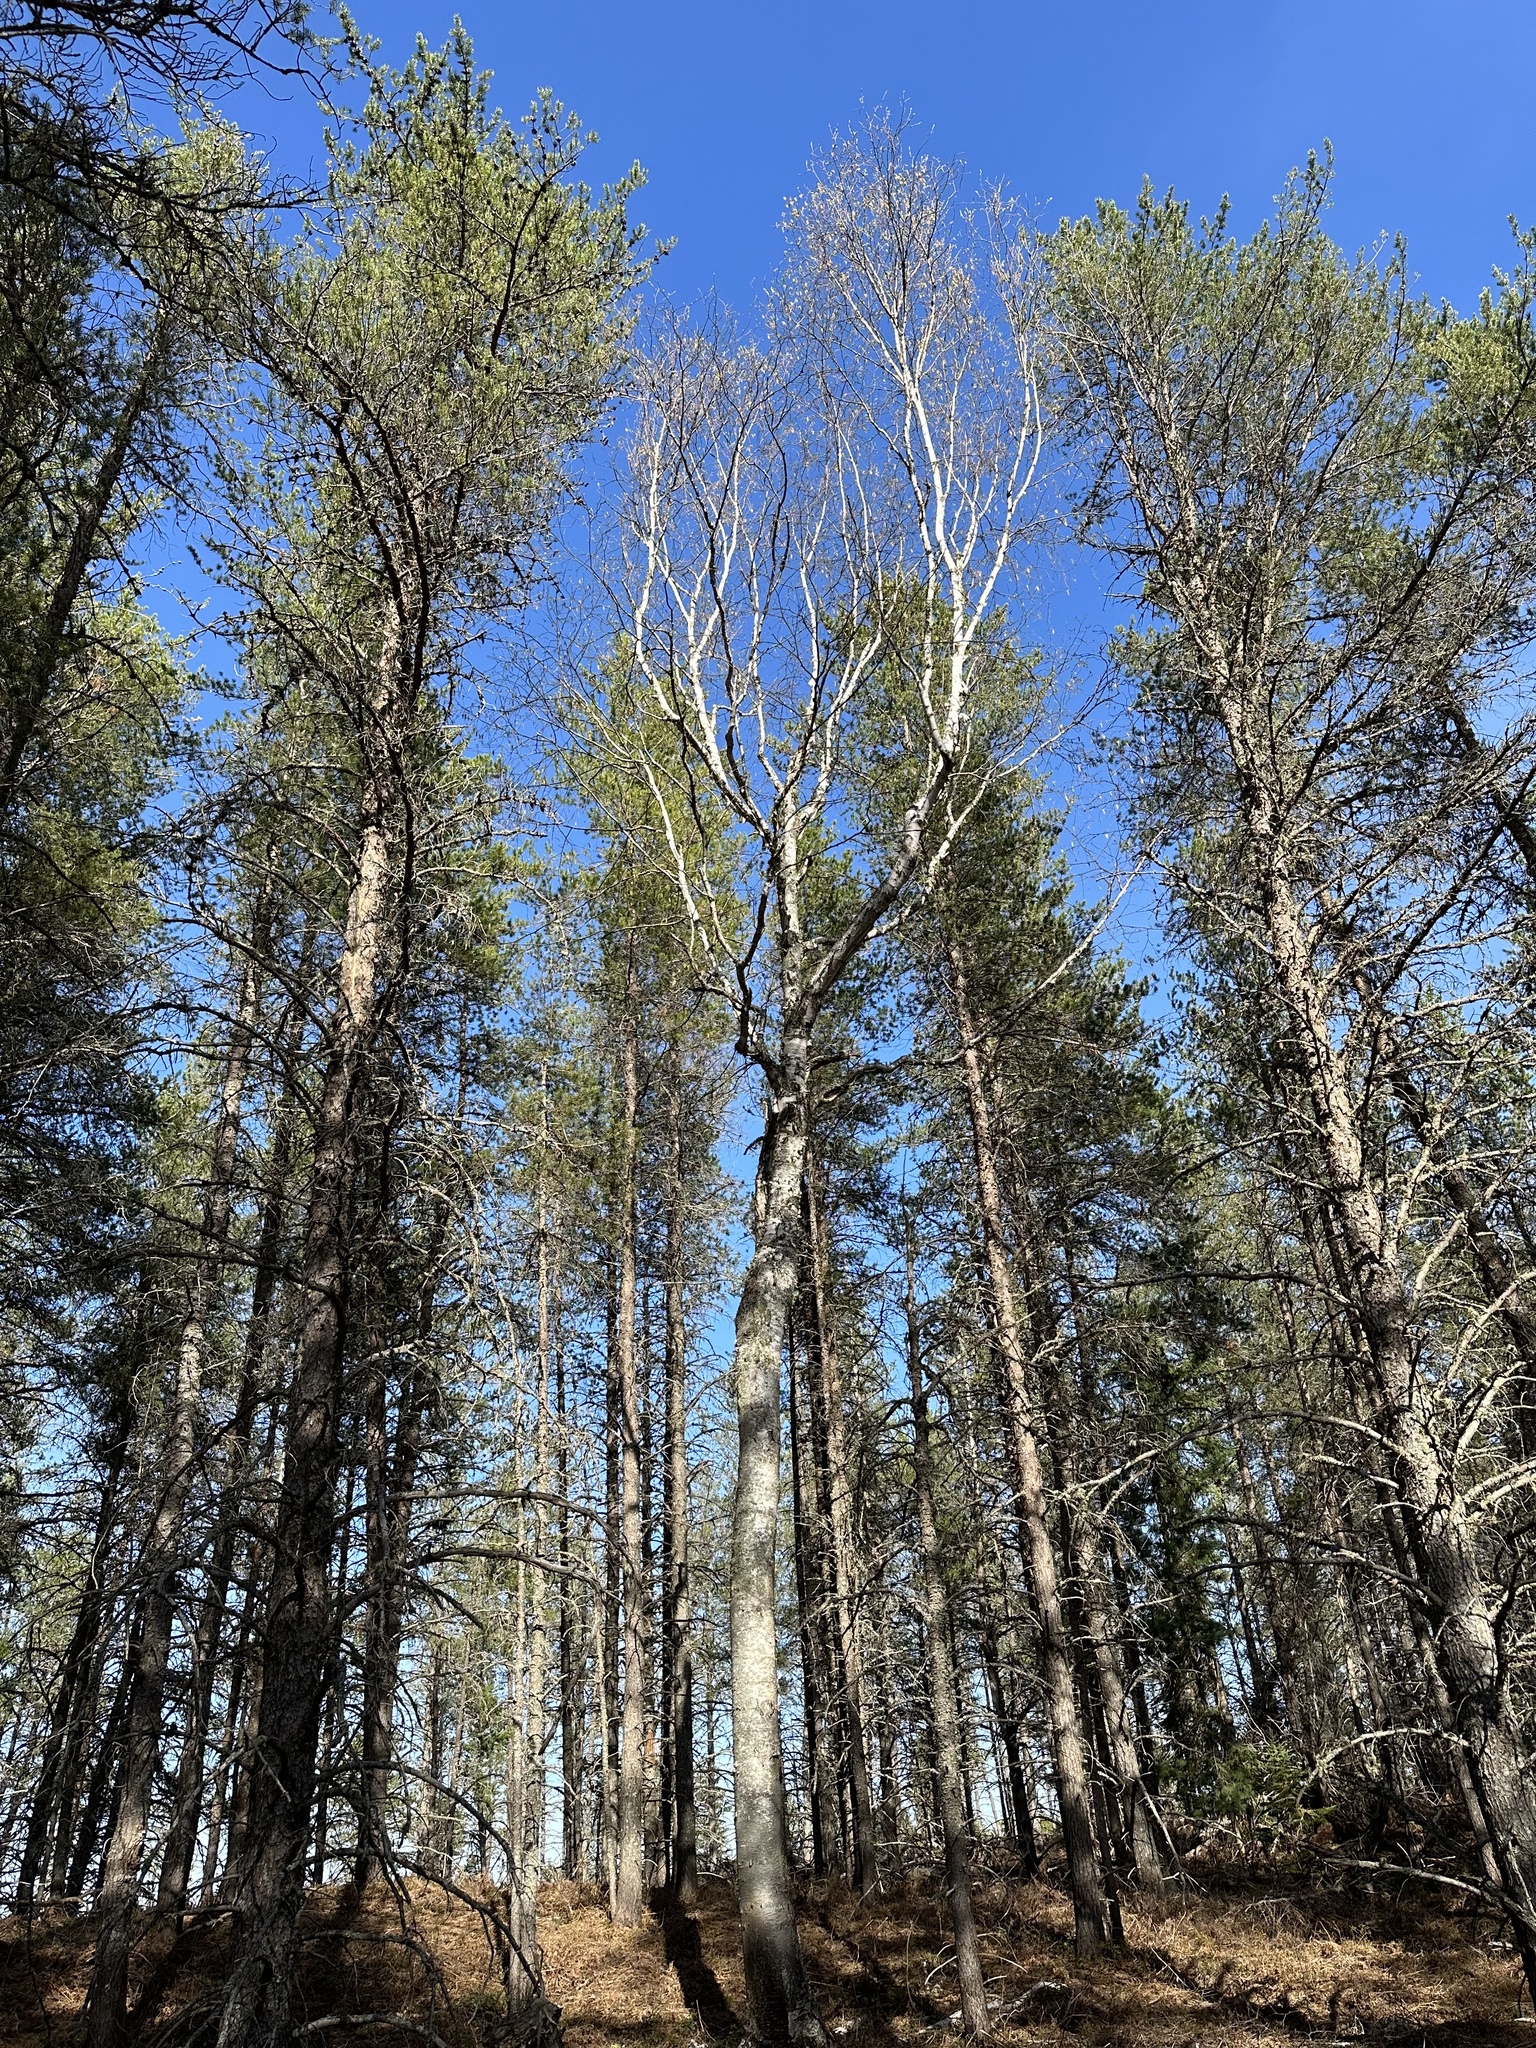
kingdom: Plantae
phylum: Tracheophyta
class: Magnoliopsida
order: Fagales
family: Betulaceae
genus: Betula
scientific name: Betula papyrifera
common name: Paper birch
